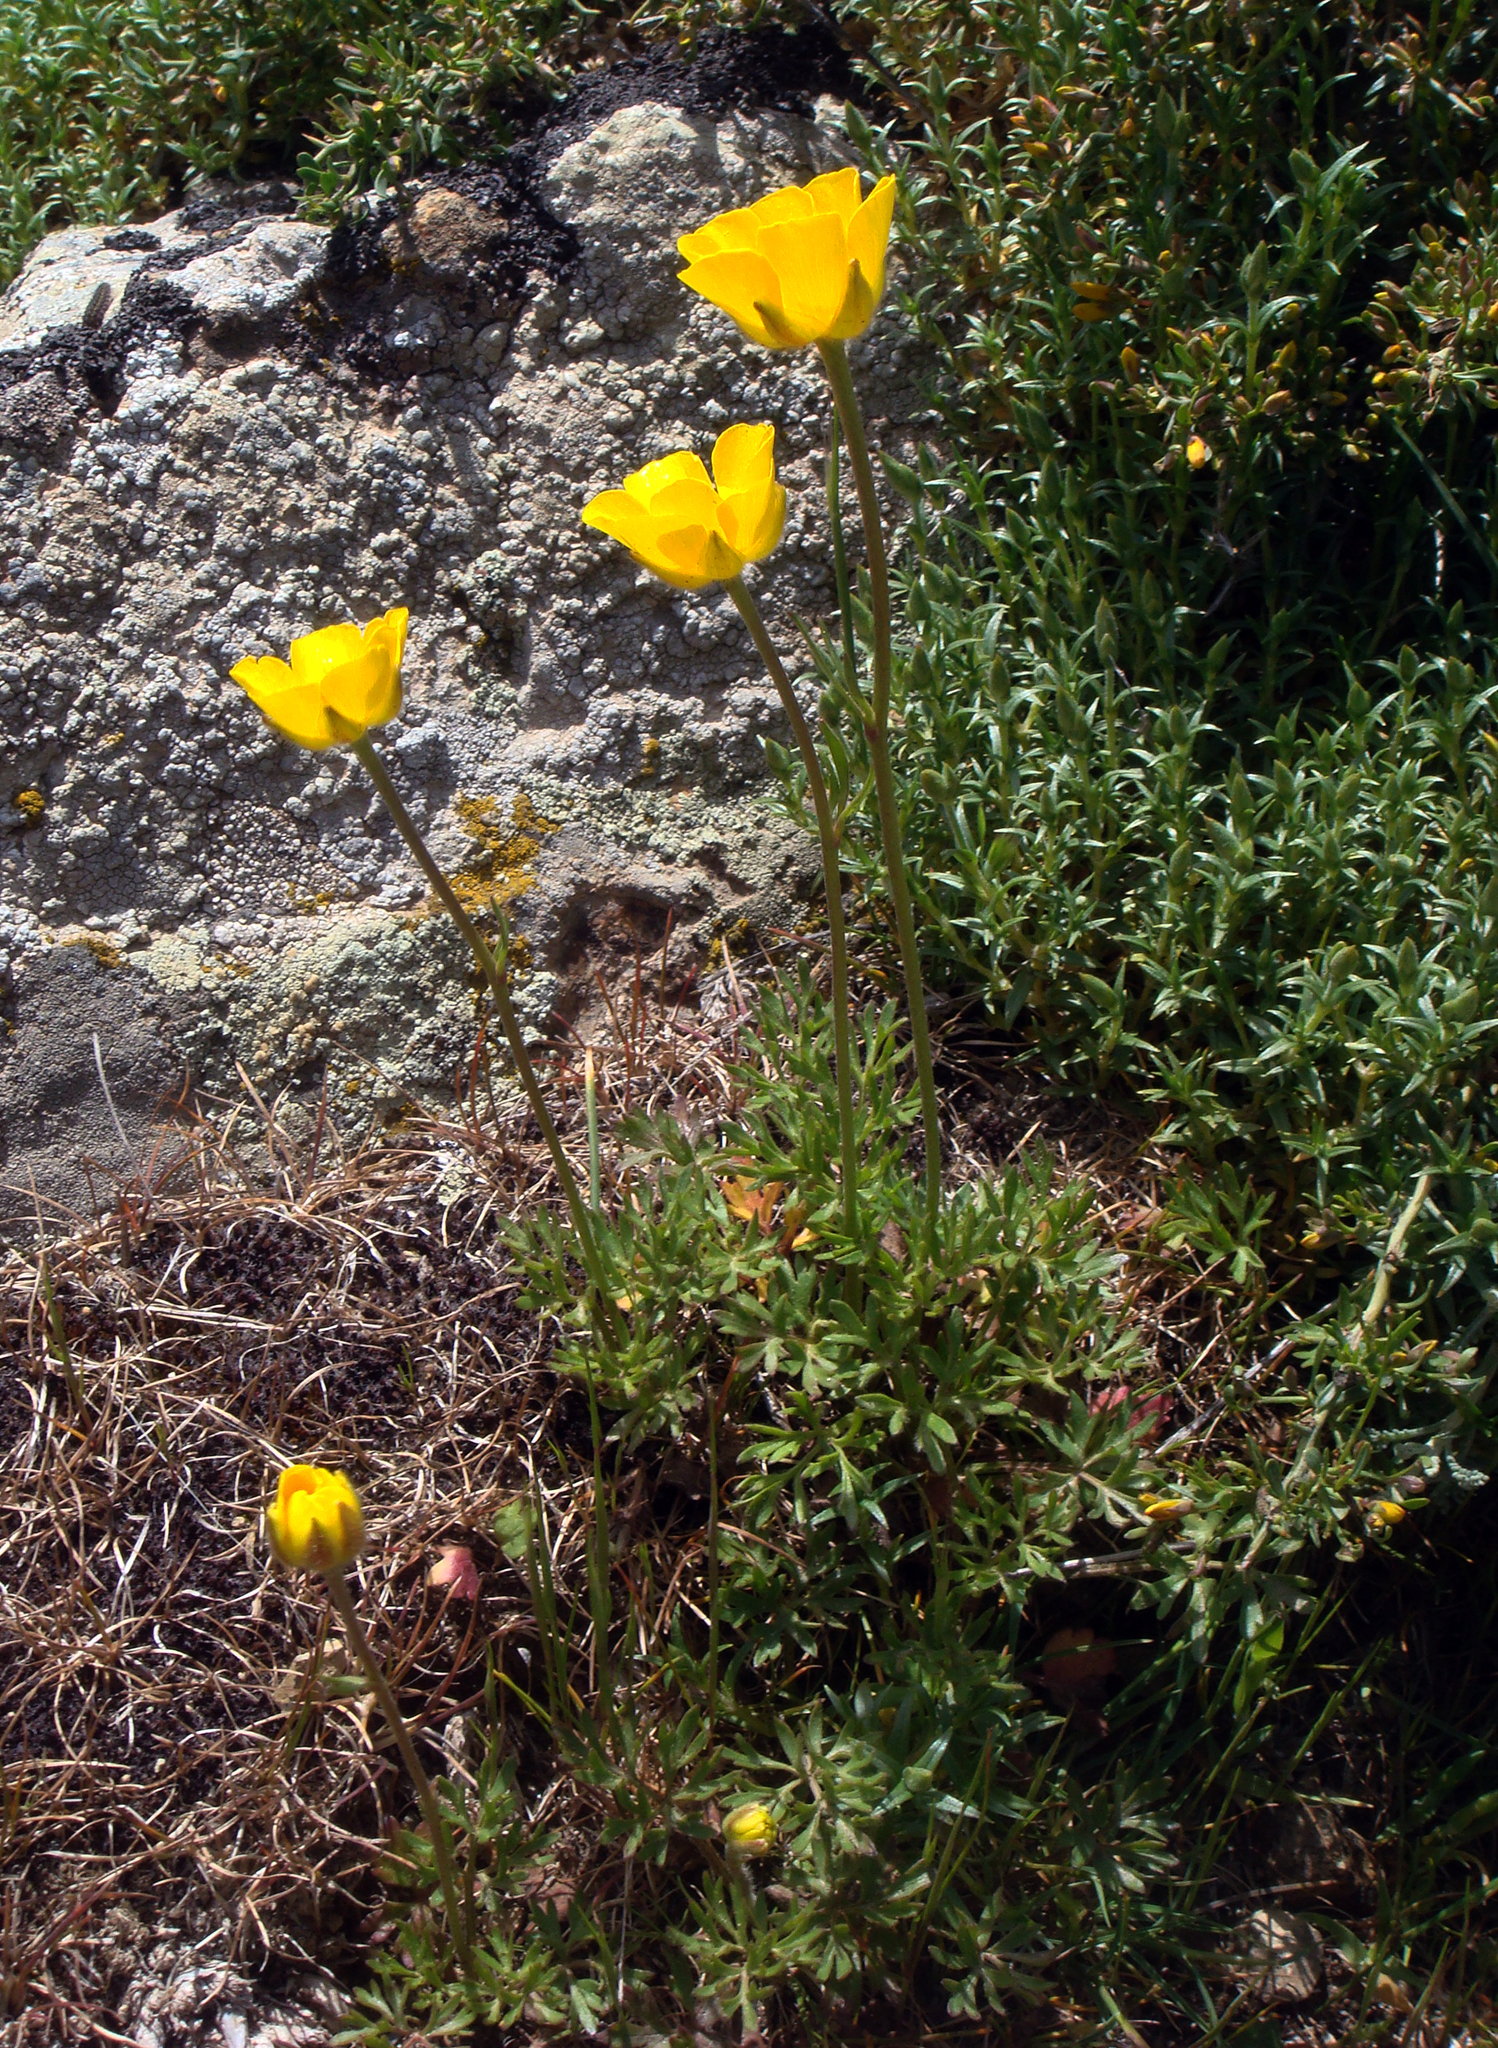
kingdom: Plantae
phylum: Tracheophyta
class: Magnoliopsida
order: Ranunculales
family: Ranunculaceae
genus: Ranunculus
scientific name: Ranunculus paludosus
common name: Jersey buttercup
